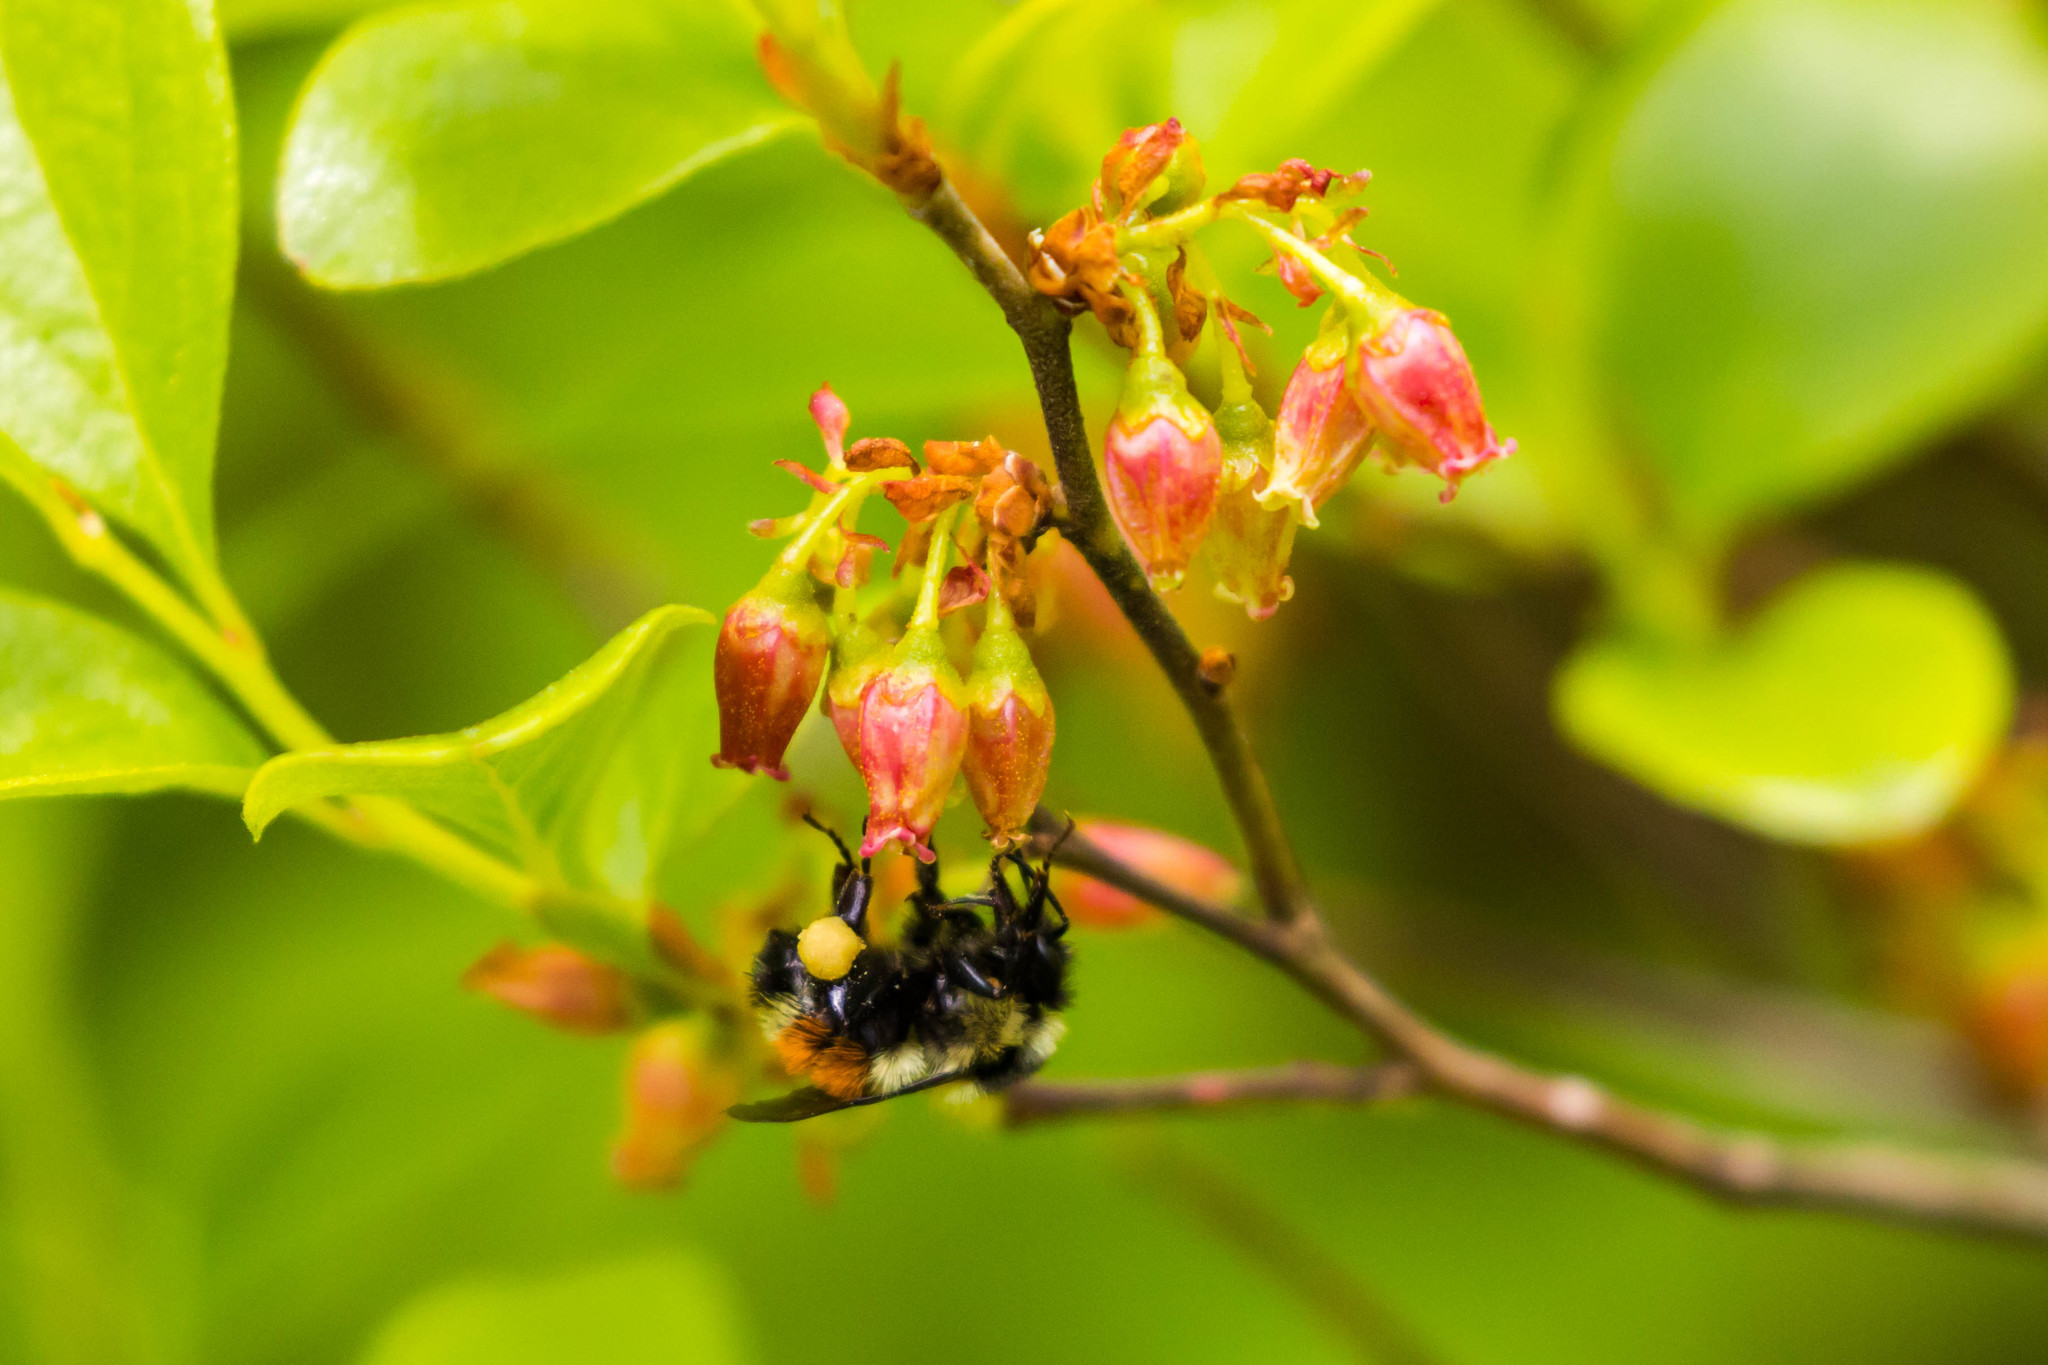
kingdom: Animalia
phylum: Arthropoda
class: Insecta
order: Hymenoptera
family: Apidae
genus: Bombus
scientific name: Bombus ternarius
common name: Tri-colored bumble bee
